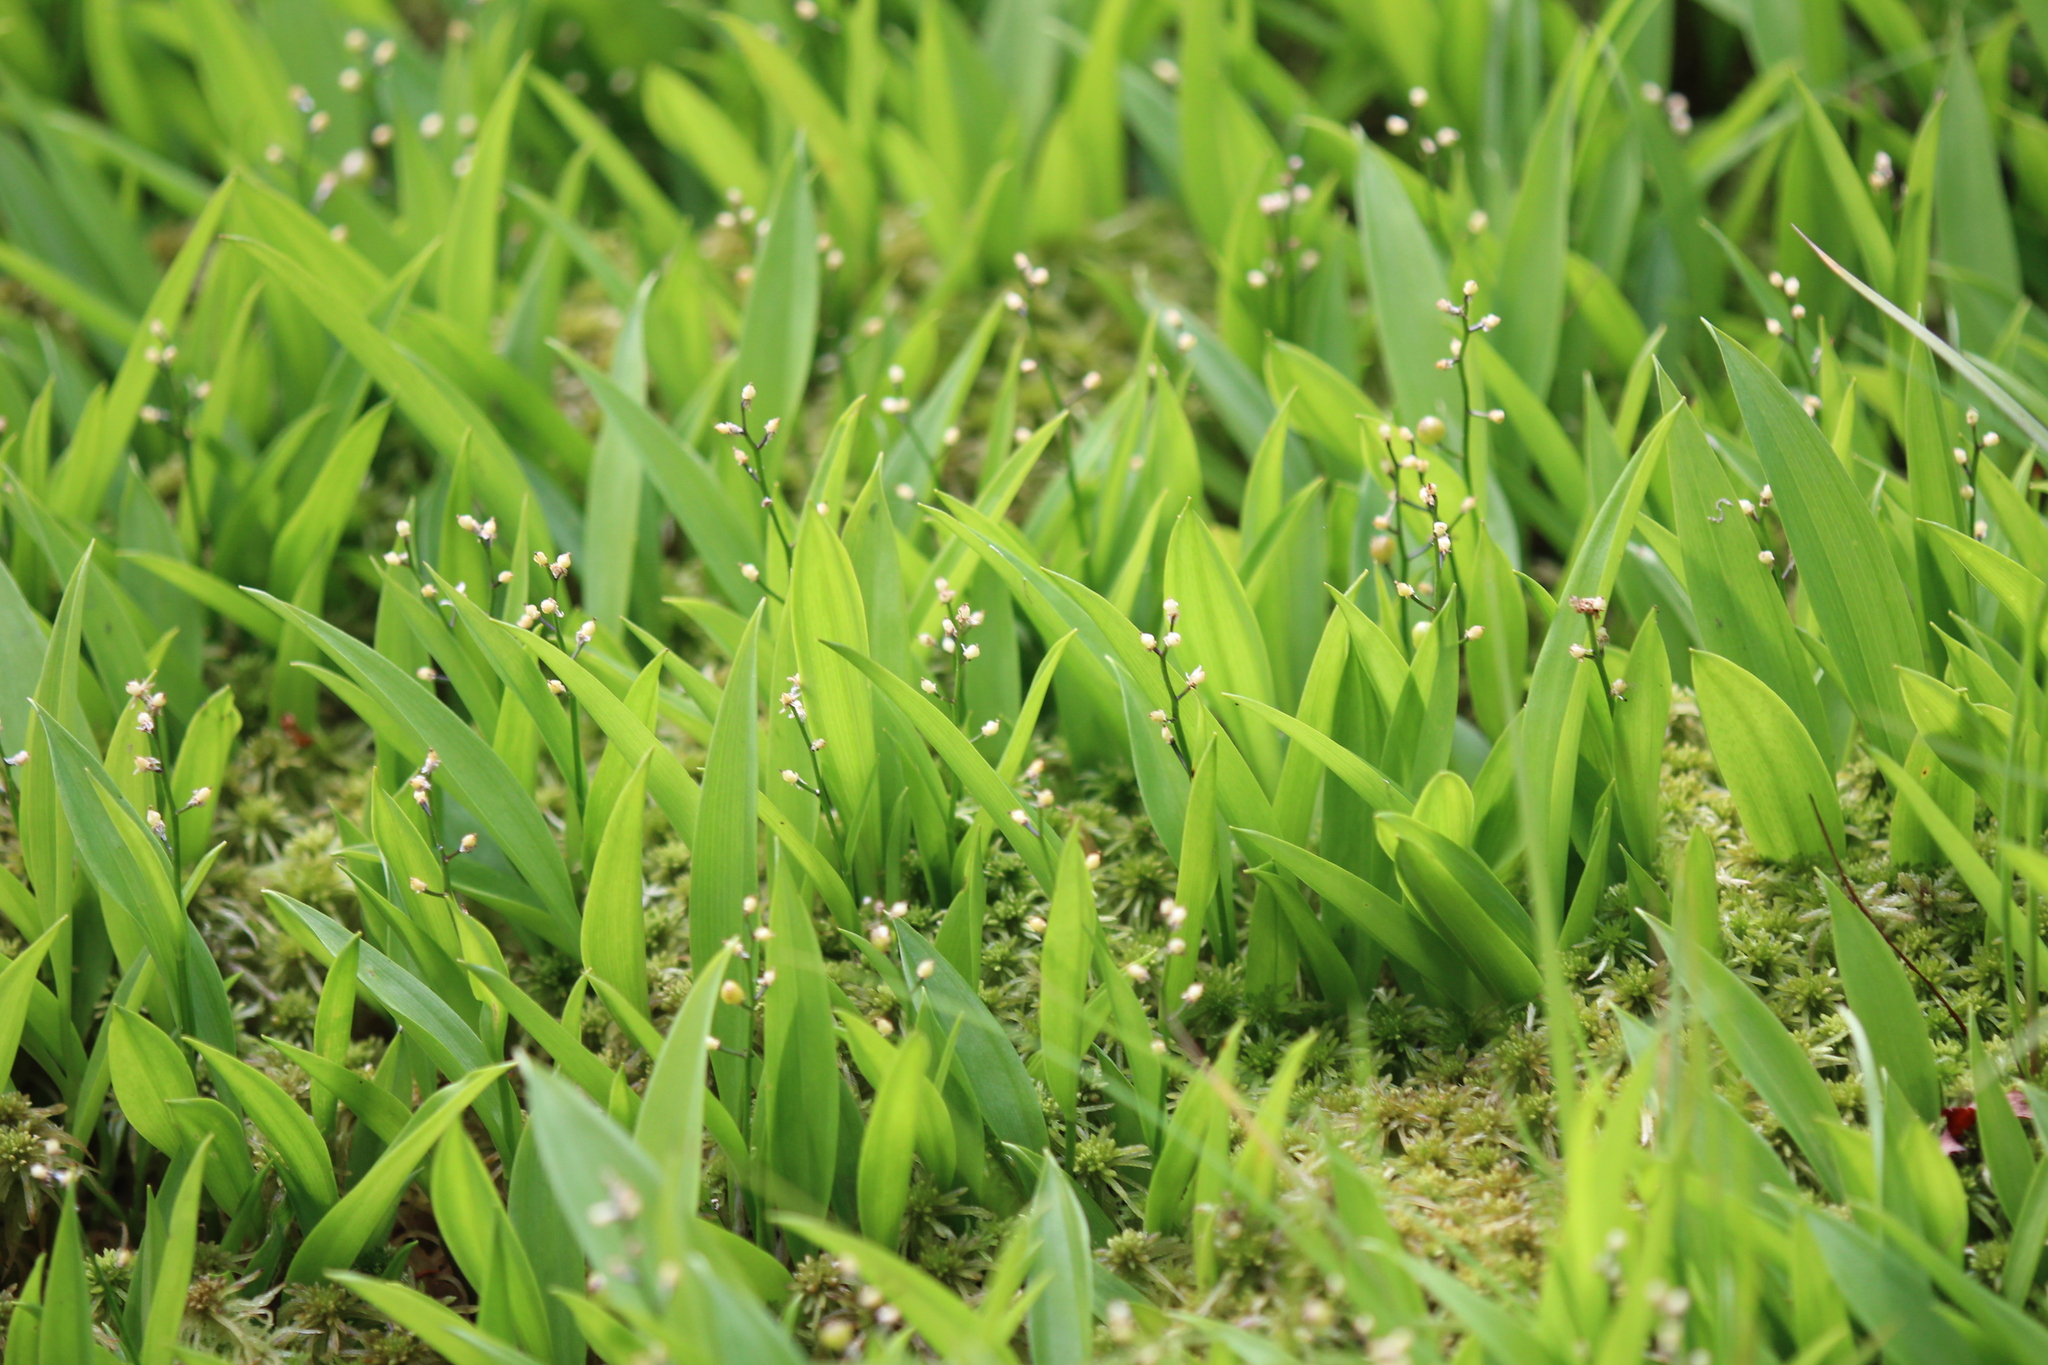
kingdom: Plantae
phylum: Tracheophyta
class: Liliopsida
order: Asparagales
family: Asparagaceae
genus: Maianthemum
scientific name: Maianthemum trifolium
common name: Swamp false solomon's seal
